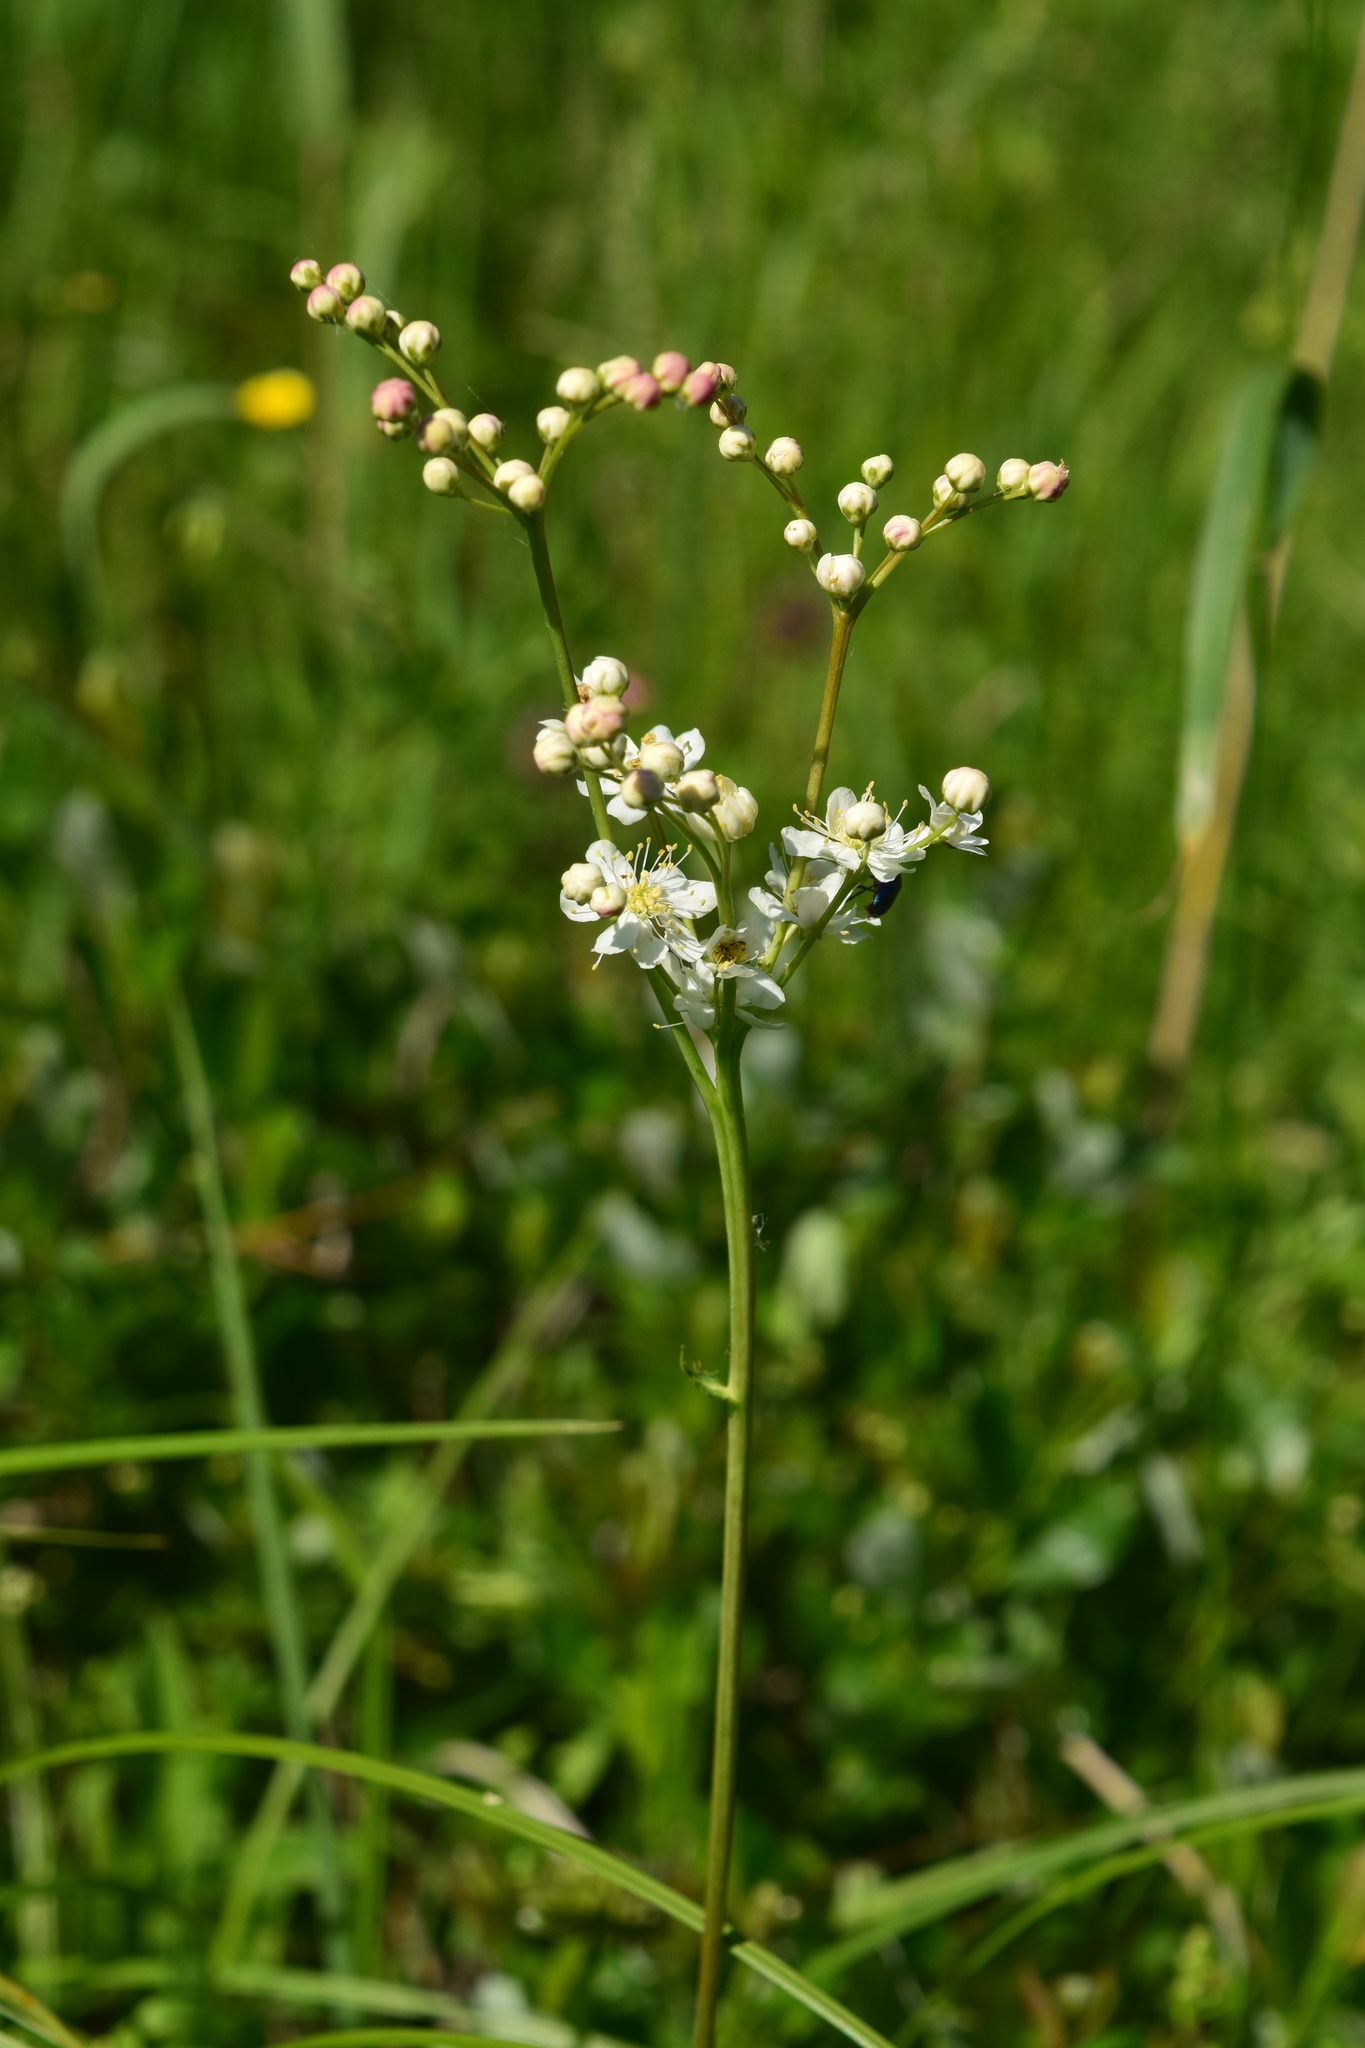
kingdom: Plantae
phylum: Tracheophyta
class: Magnoliopsida
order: Rosales
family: Rosaceae
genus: Filipendula
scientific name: Filipendula vulgaris
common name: Dropwort
